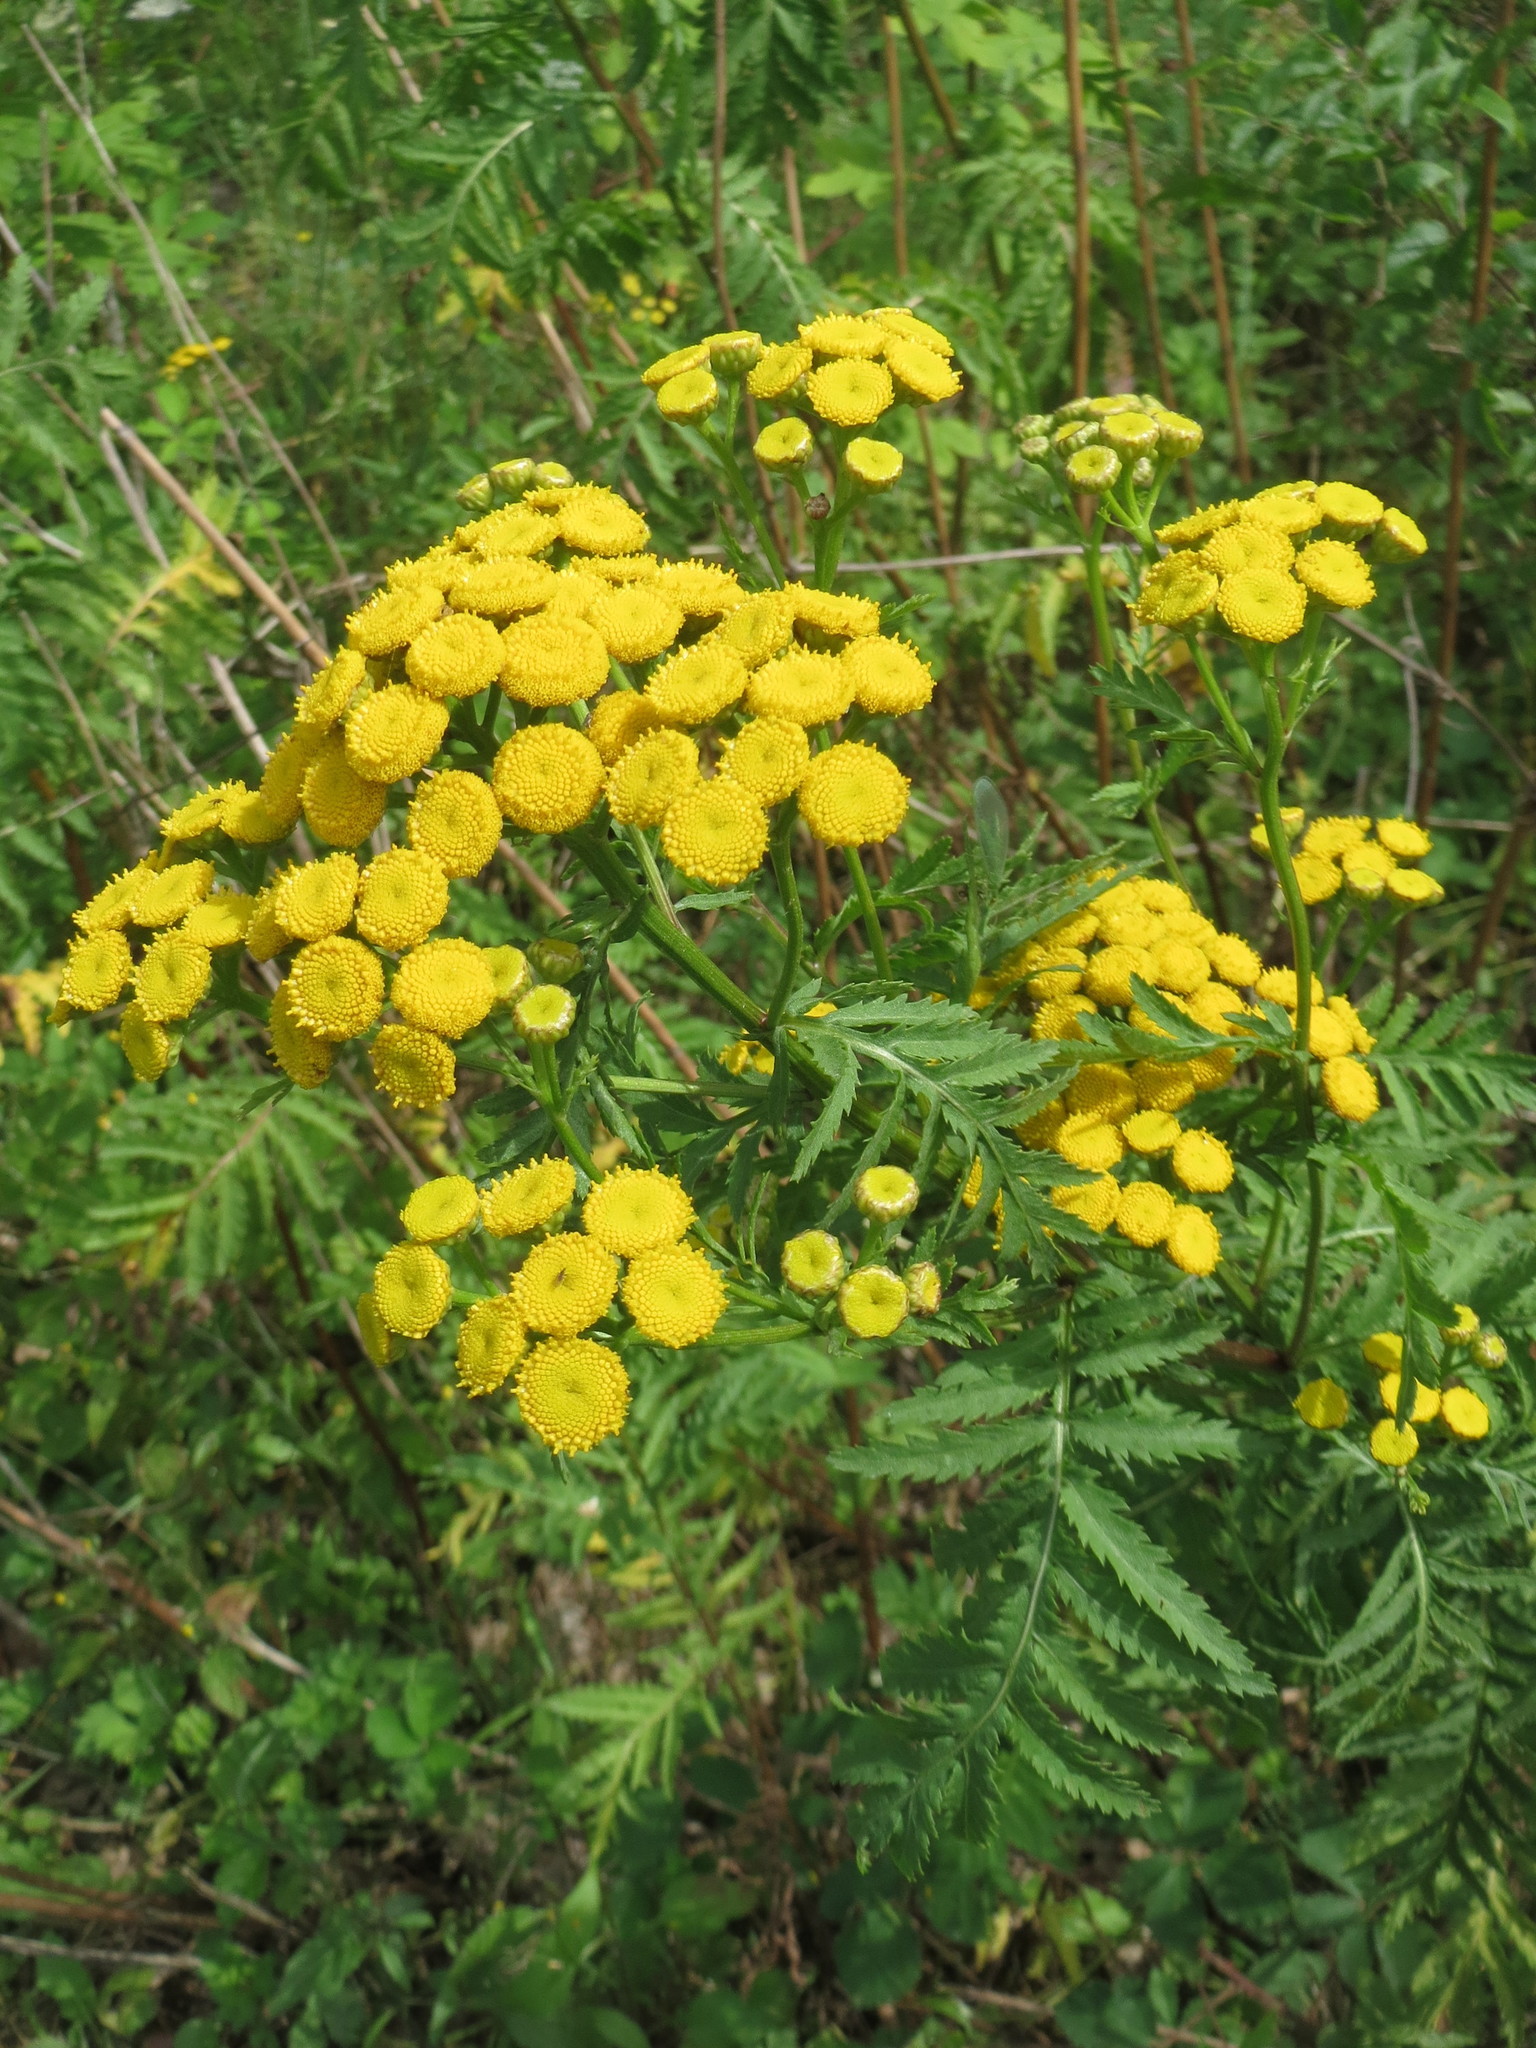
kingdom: Plantae
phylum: Tracheophyta
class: Magnoliopsida
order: Asterales
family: Asteraceae
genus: Tanacetum
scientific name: Tanacetum vulgare
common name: Common tansy
